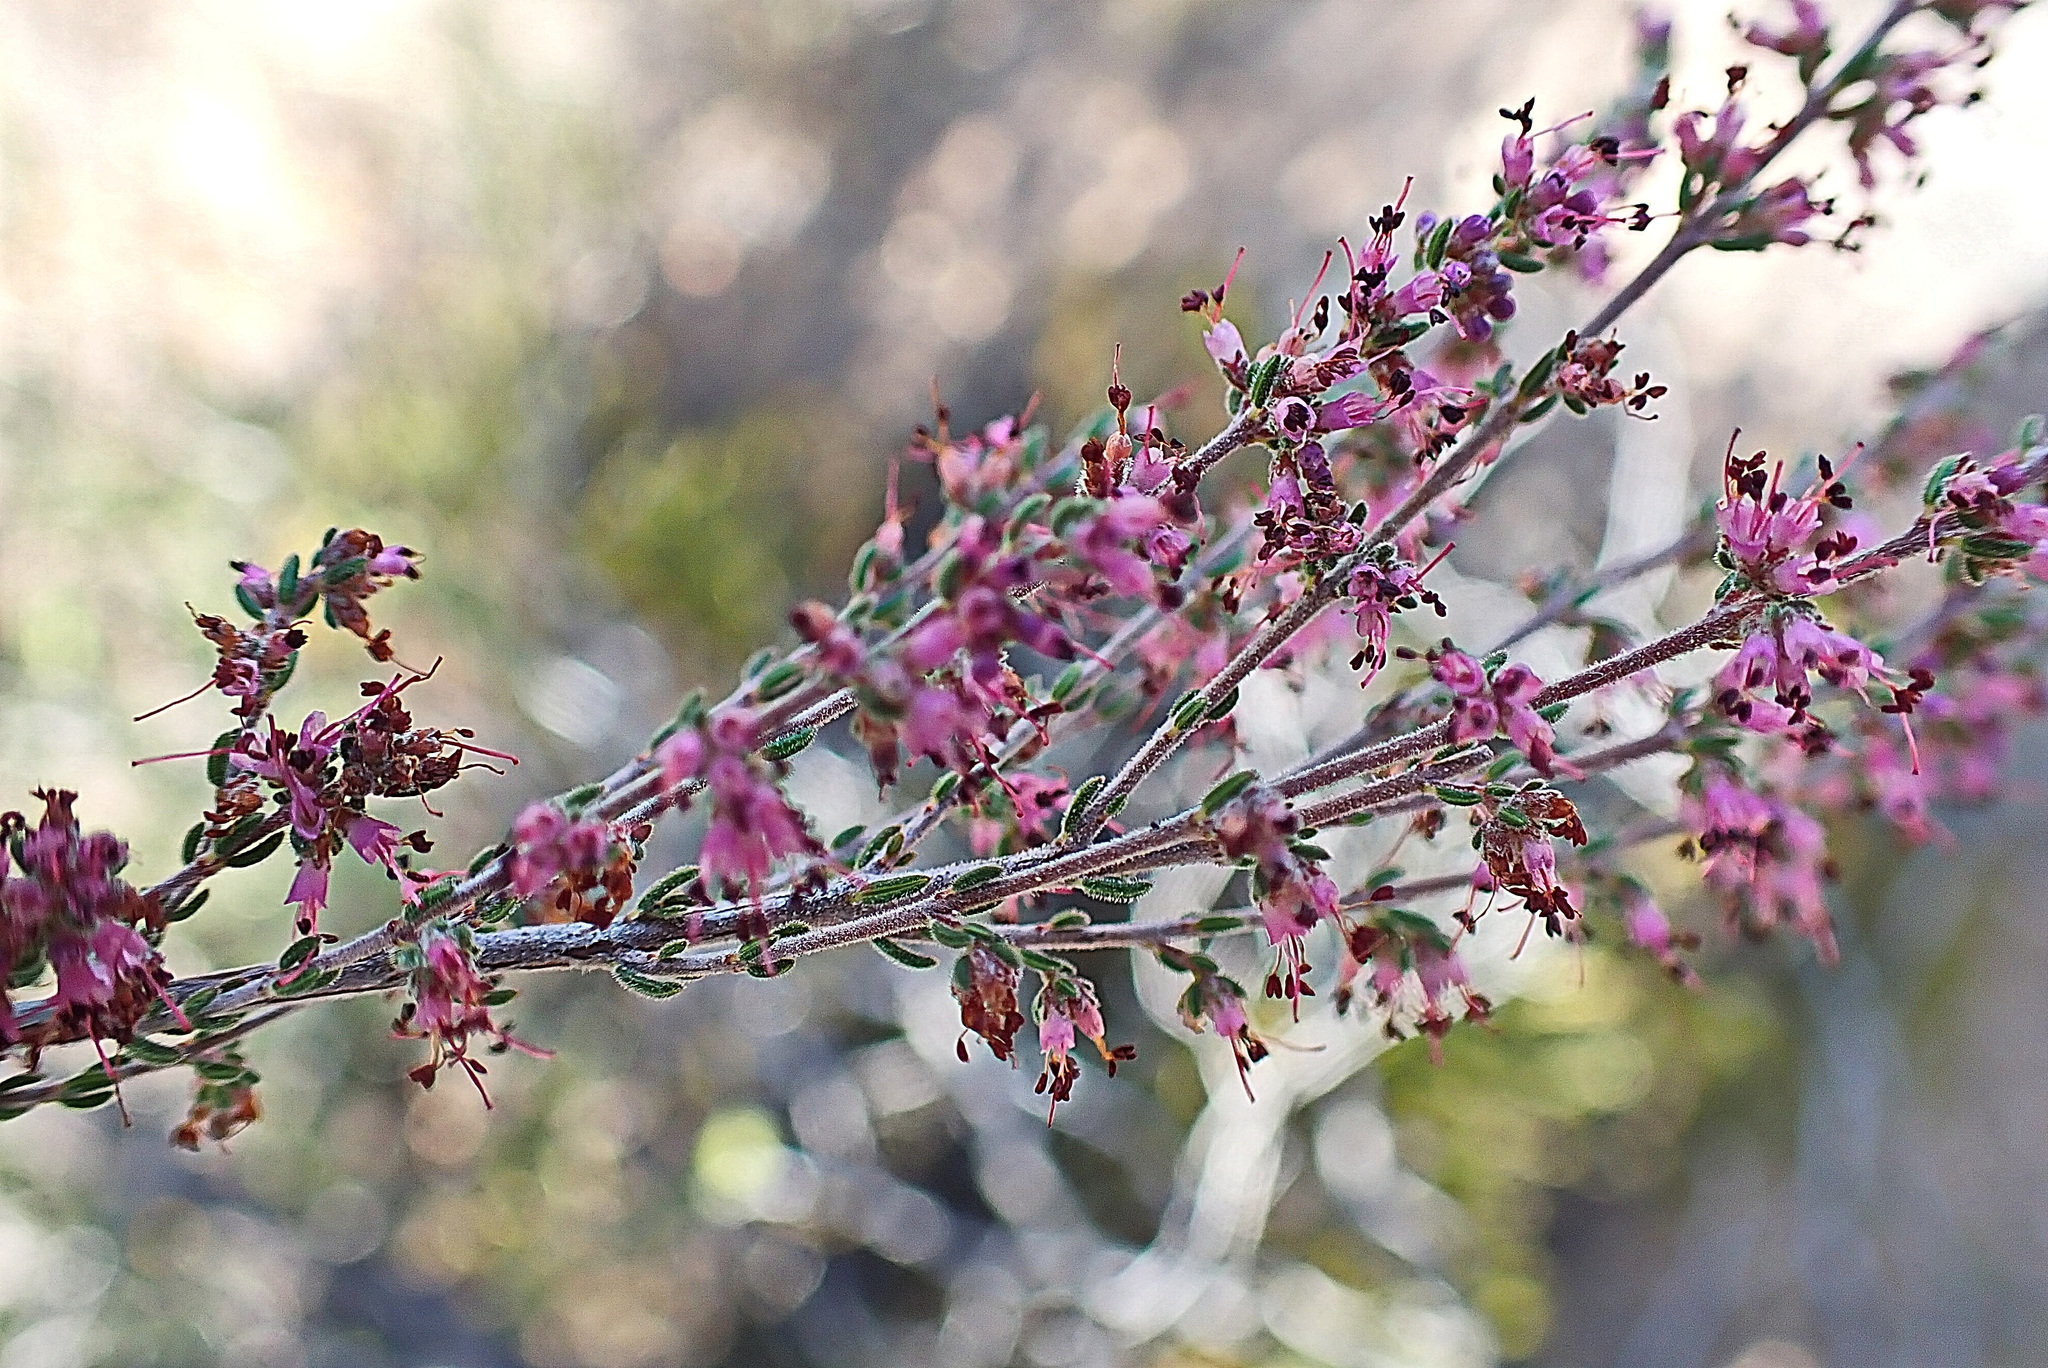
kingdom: Plantae
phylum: Tracheophyta
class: Magnoliopsida
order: Ericales
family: Ericaceae
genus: Erica
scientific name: Erica anguliger
